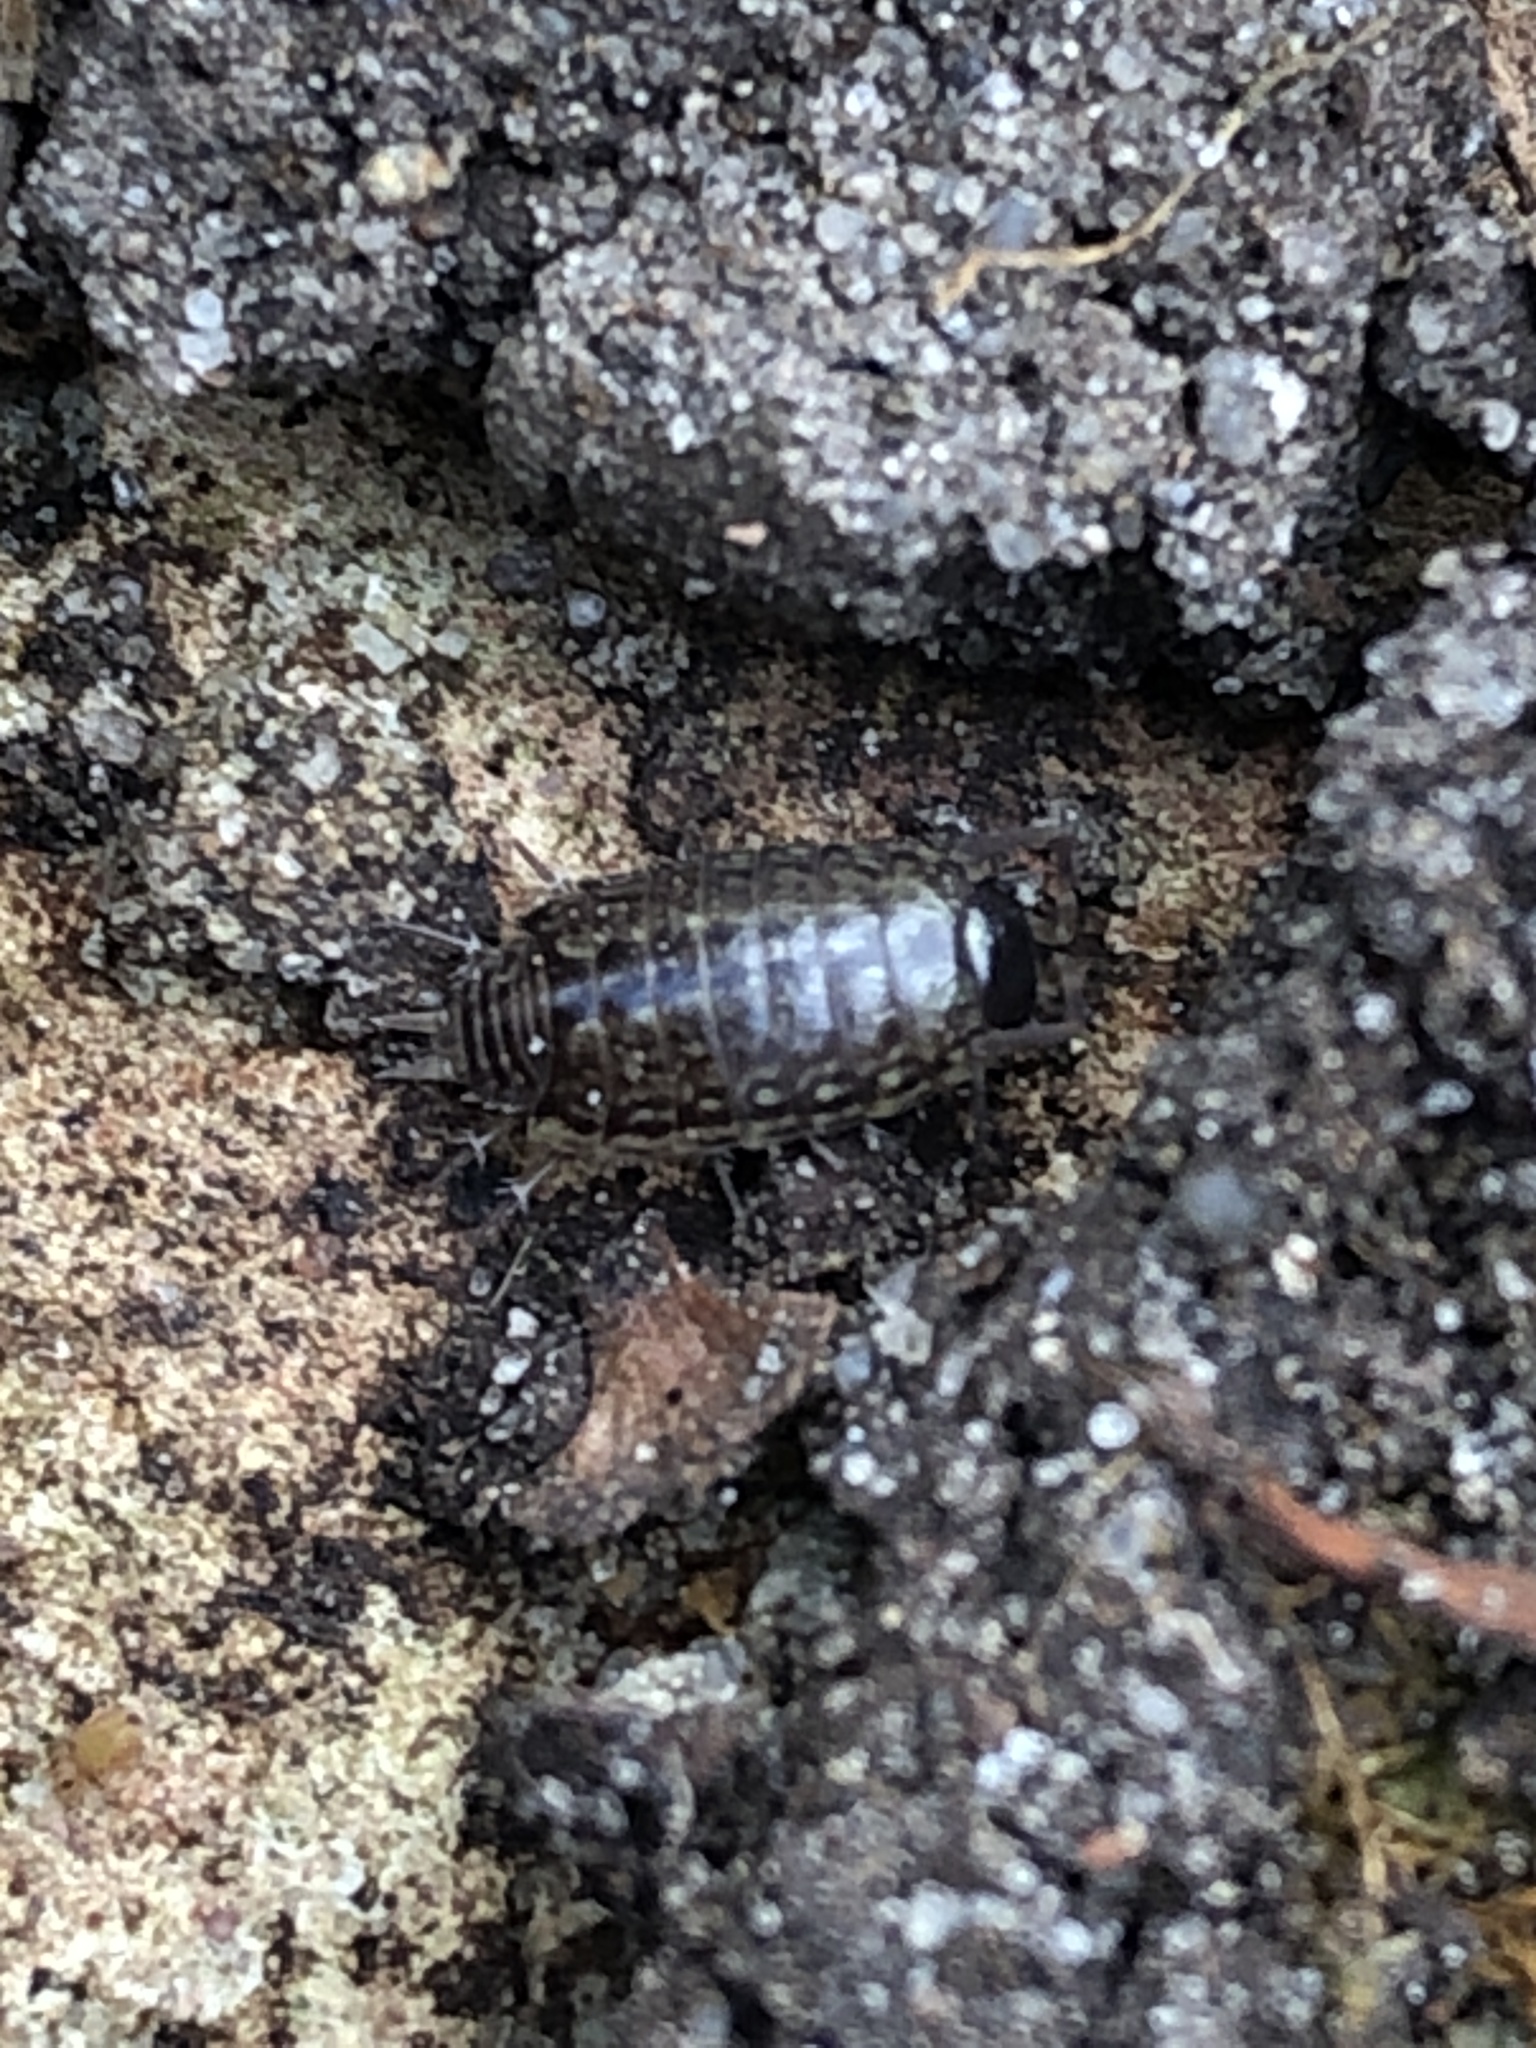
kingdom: Animalia
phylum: Arthropoda
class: Malacostraca
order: Isopoda
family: Philosciidae
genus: Philoscia
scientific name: Philoscia muscorum
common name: Common striped woodlouse
